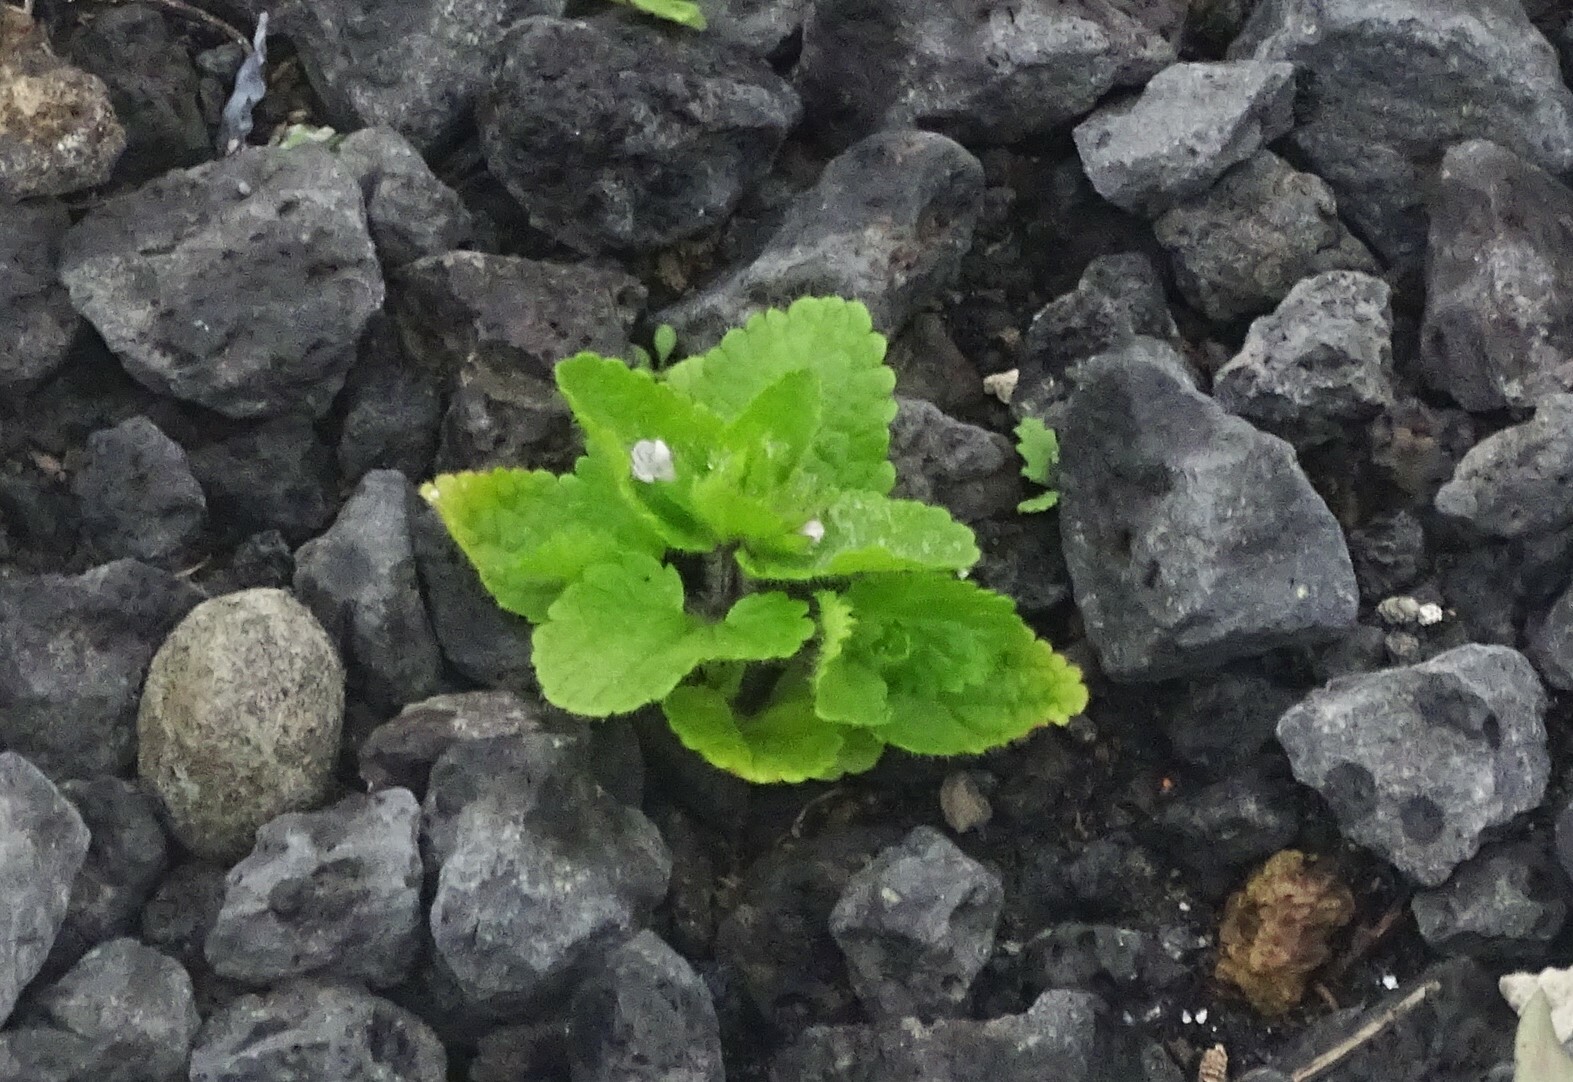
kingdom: Plantae
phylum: Tracheophyta
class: Magnoliopsida
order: Lamiales
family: Lamiaceae
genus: Stachys
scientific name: Stachys arvensis
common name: Field woundwort
